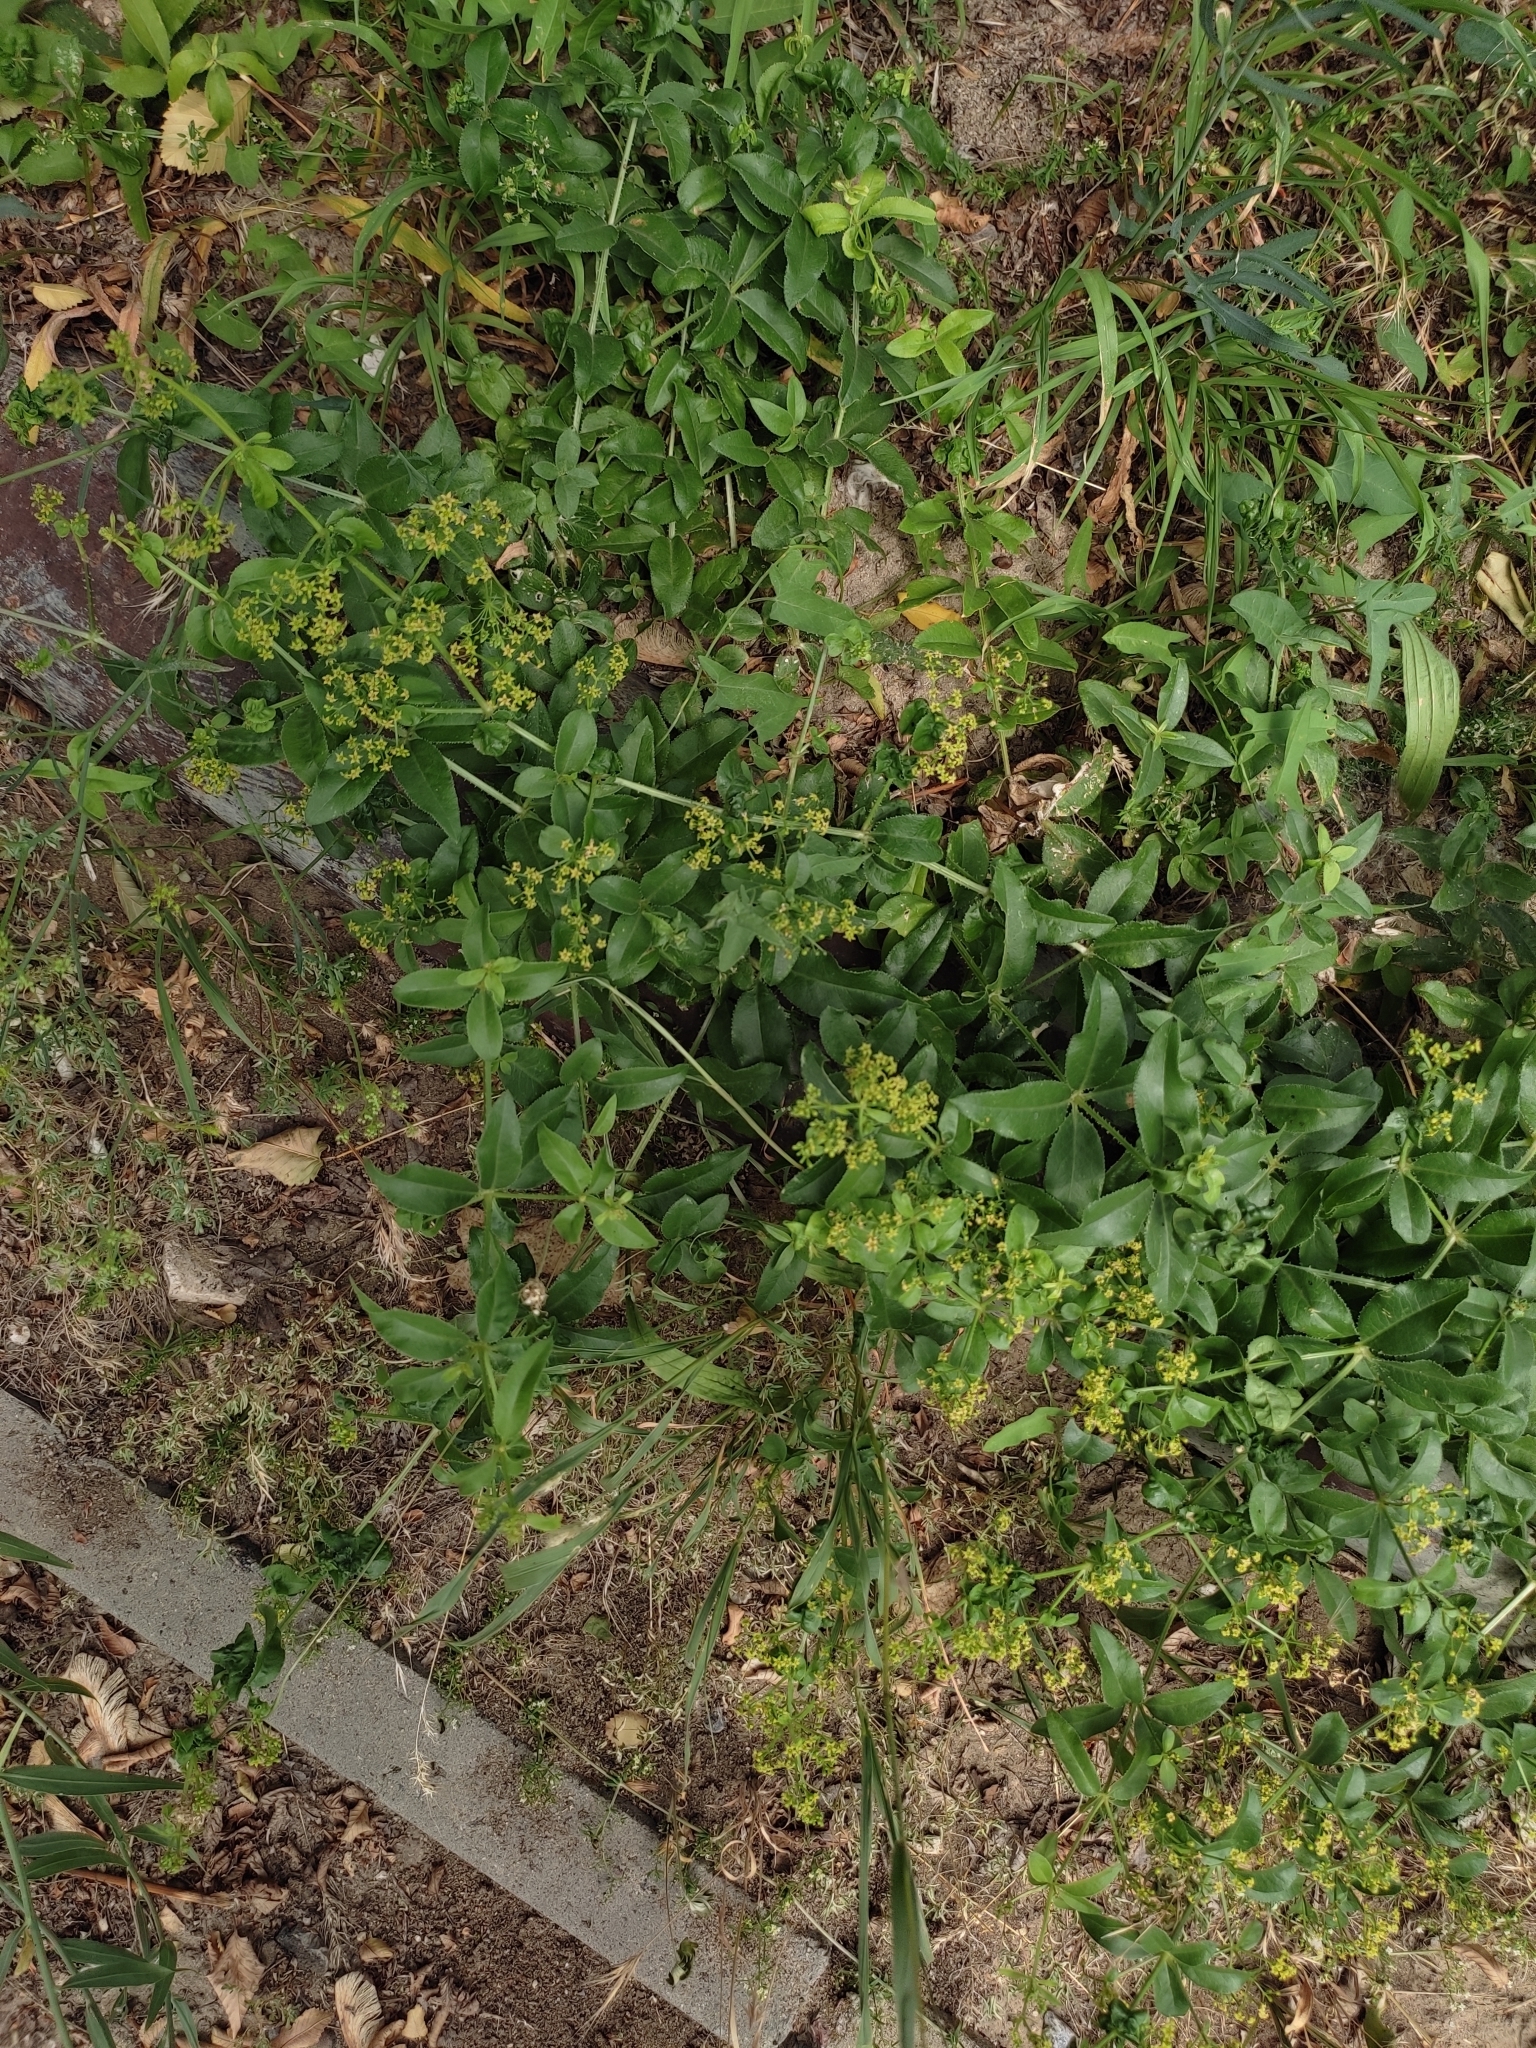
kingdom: Plantae
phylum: Tracheophyta
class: Magnoliopsida
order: Gentianales
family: Rubiaceae
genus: Rubia
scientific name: Rubia tinctorum
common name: Dyer's madder
